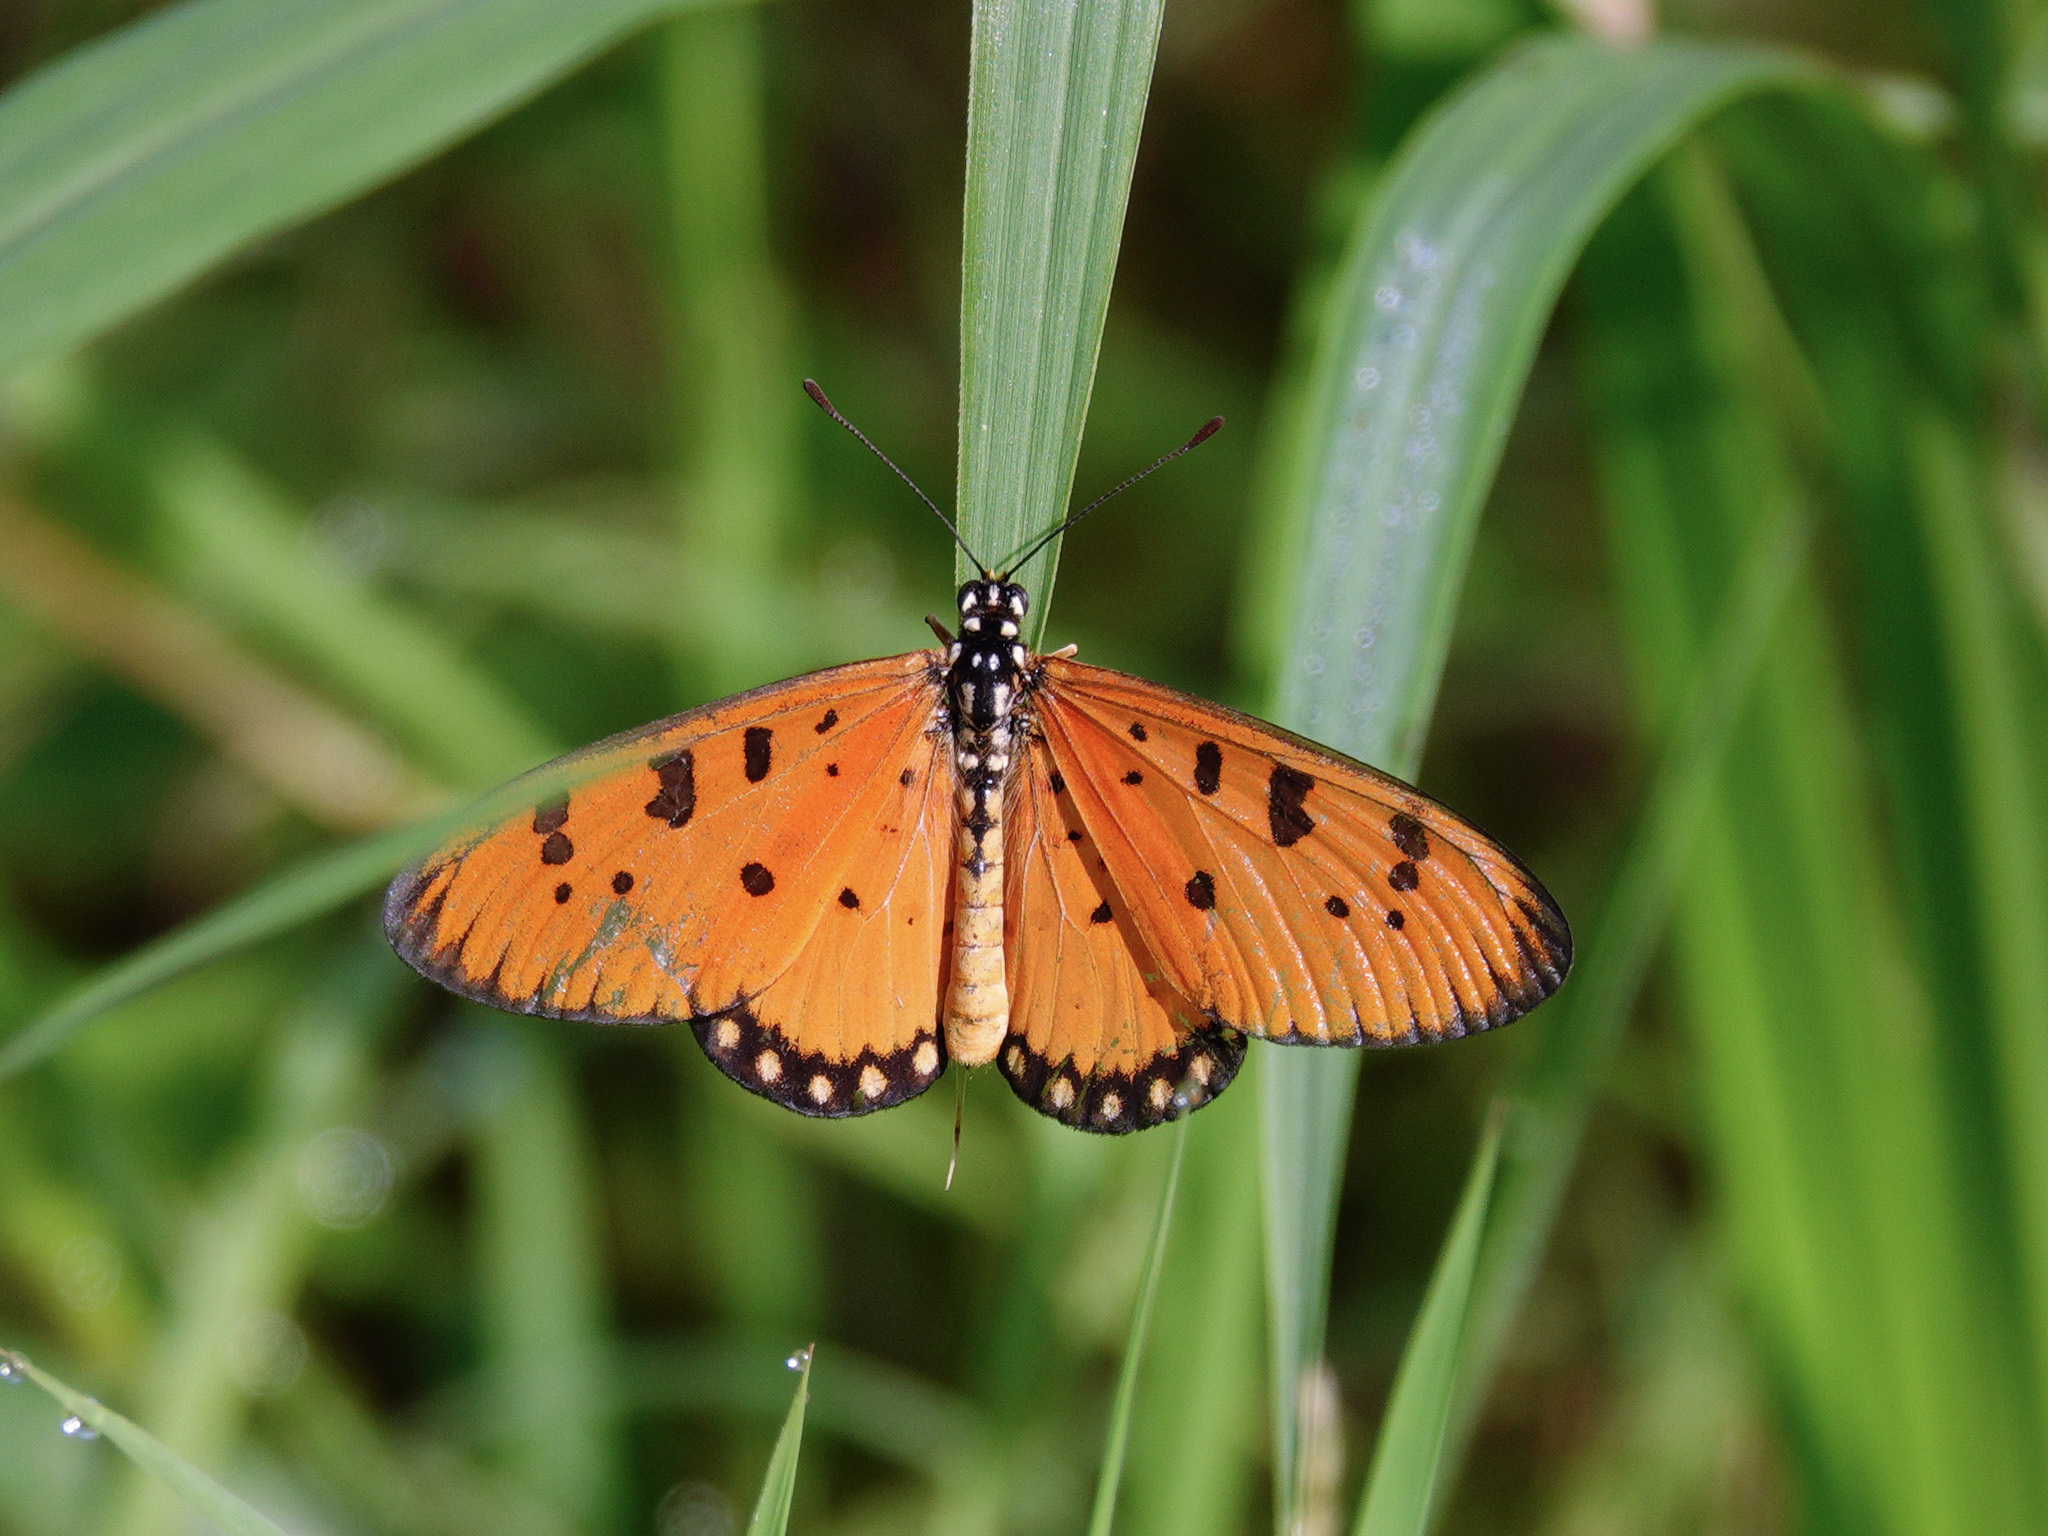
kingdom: Animalia
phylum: Arthropoda
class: Insecta
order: Lepidoptera
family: Nymphalidae
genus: Acraea
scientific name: Acraea terpsicore
